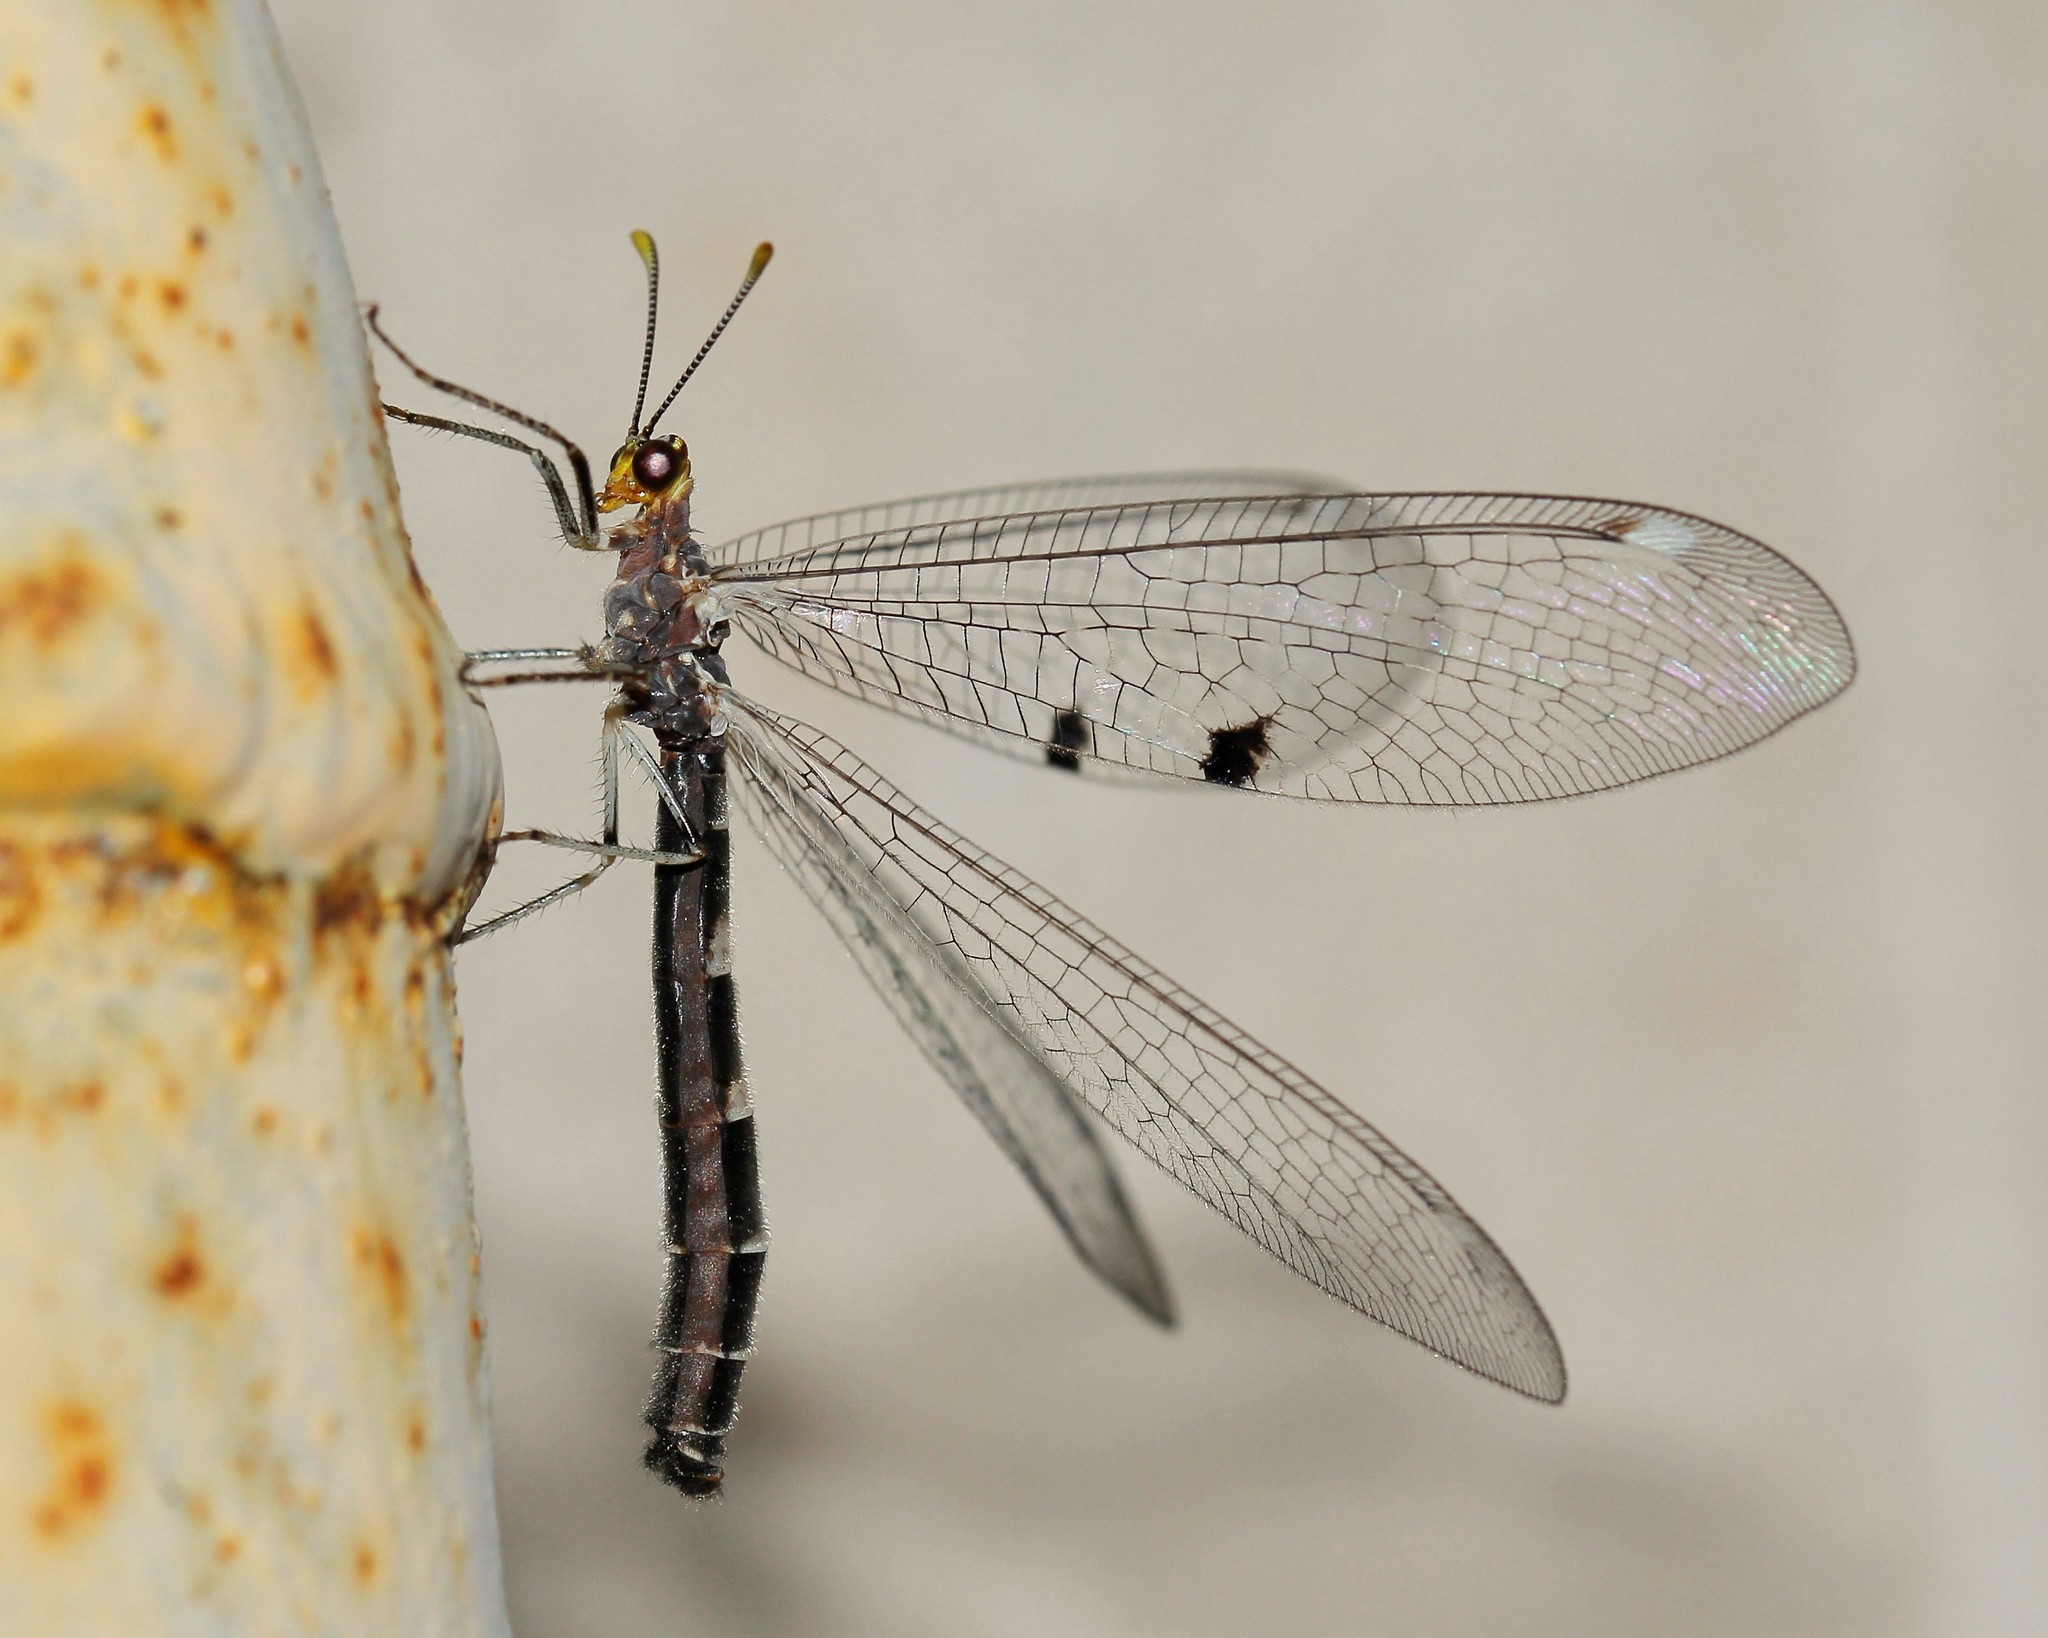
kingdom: Animalia
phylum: Arthropoda
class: Insecta
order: Neuroptera
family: Myrmeleontidae
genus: Megistopus
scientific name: Megistopus flavicornis
